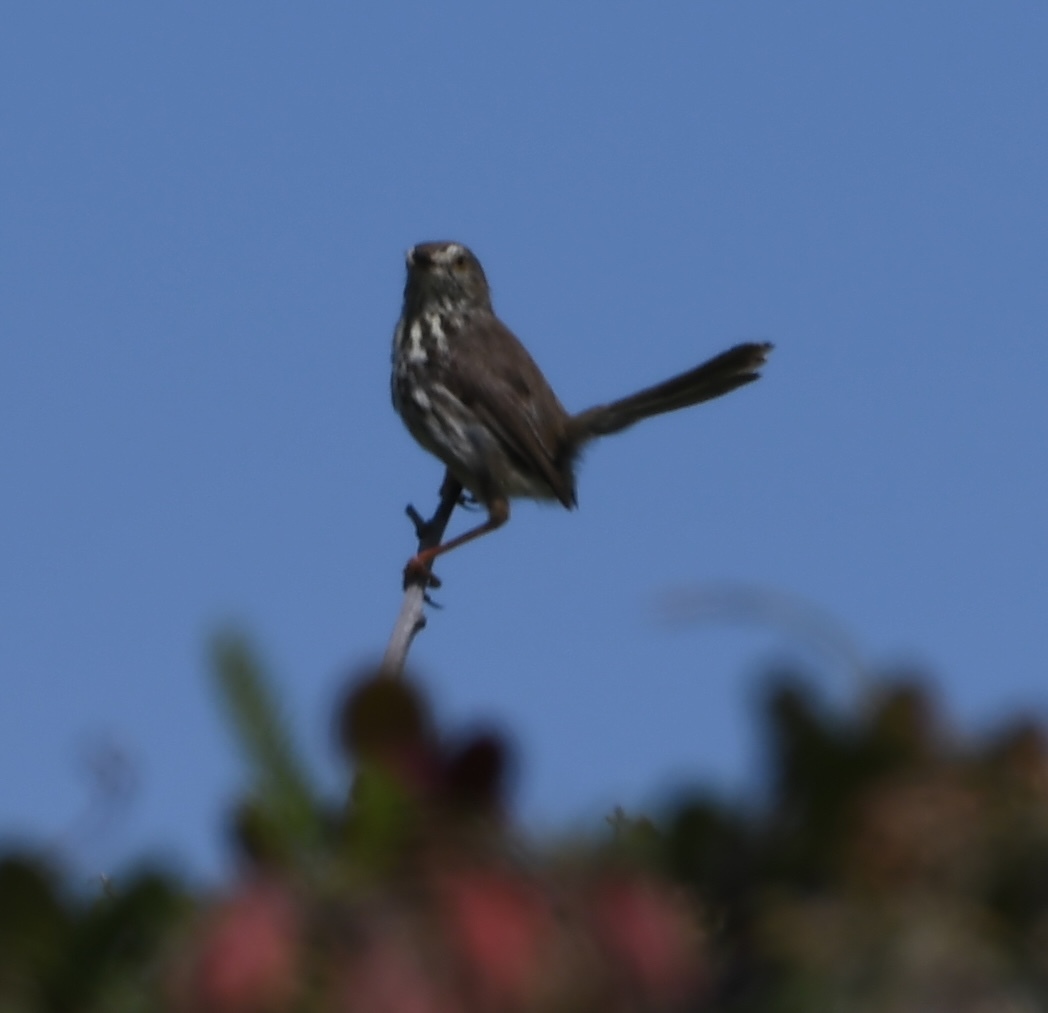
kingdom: Animalia
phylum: Chordata
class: Aves
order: Passeriformes
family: Cisticolidae
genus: Prinia
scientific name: Prinia maculosa
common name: Karoo prinia
